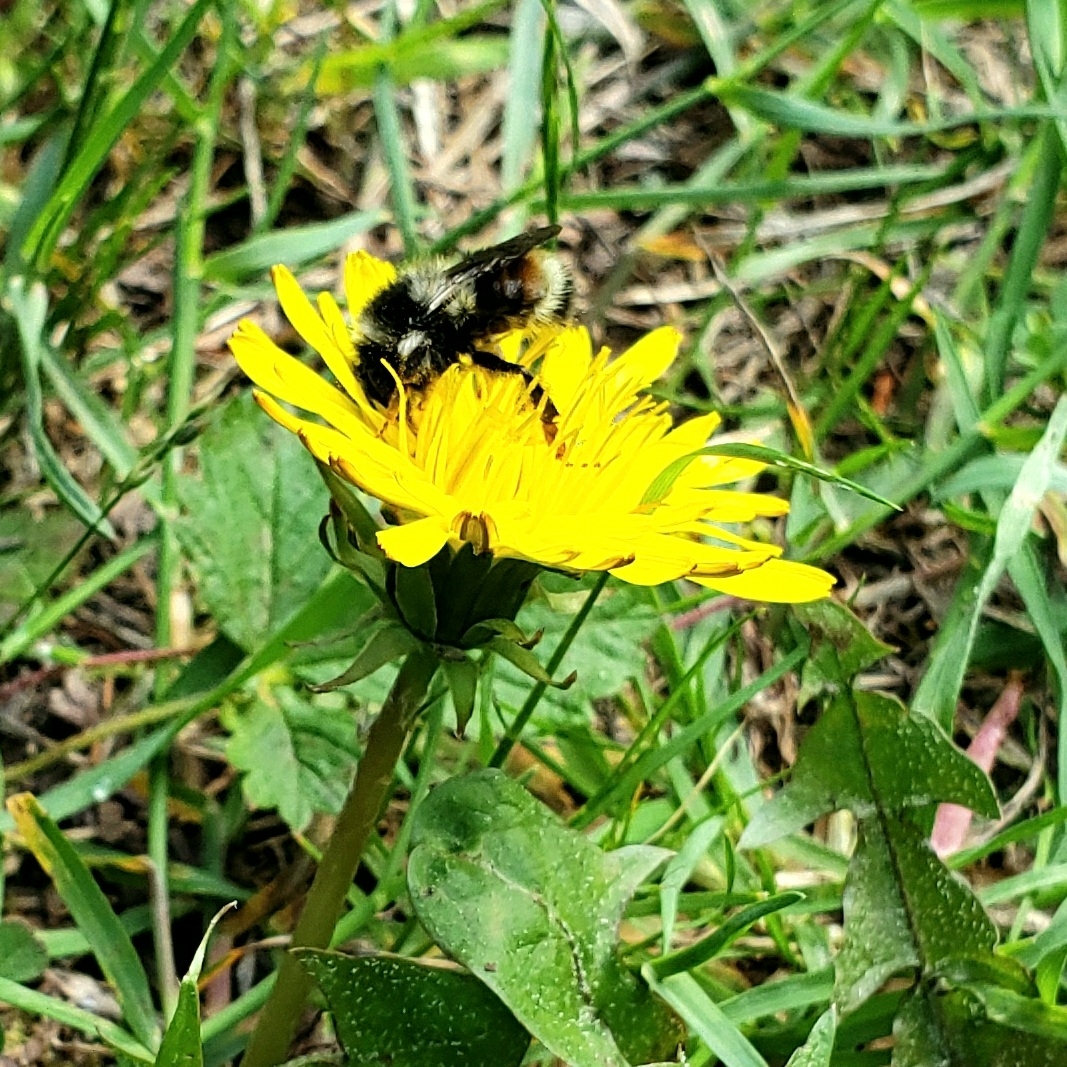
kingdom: Animalia
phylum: Arthropoda
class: Insecta
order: Hymenoptera
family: Apidae
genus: Bombus
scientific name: Bombus vancouverensis
